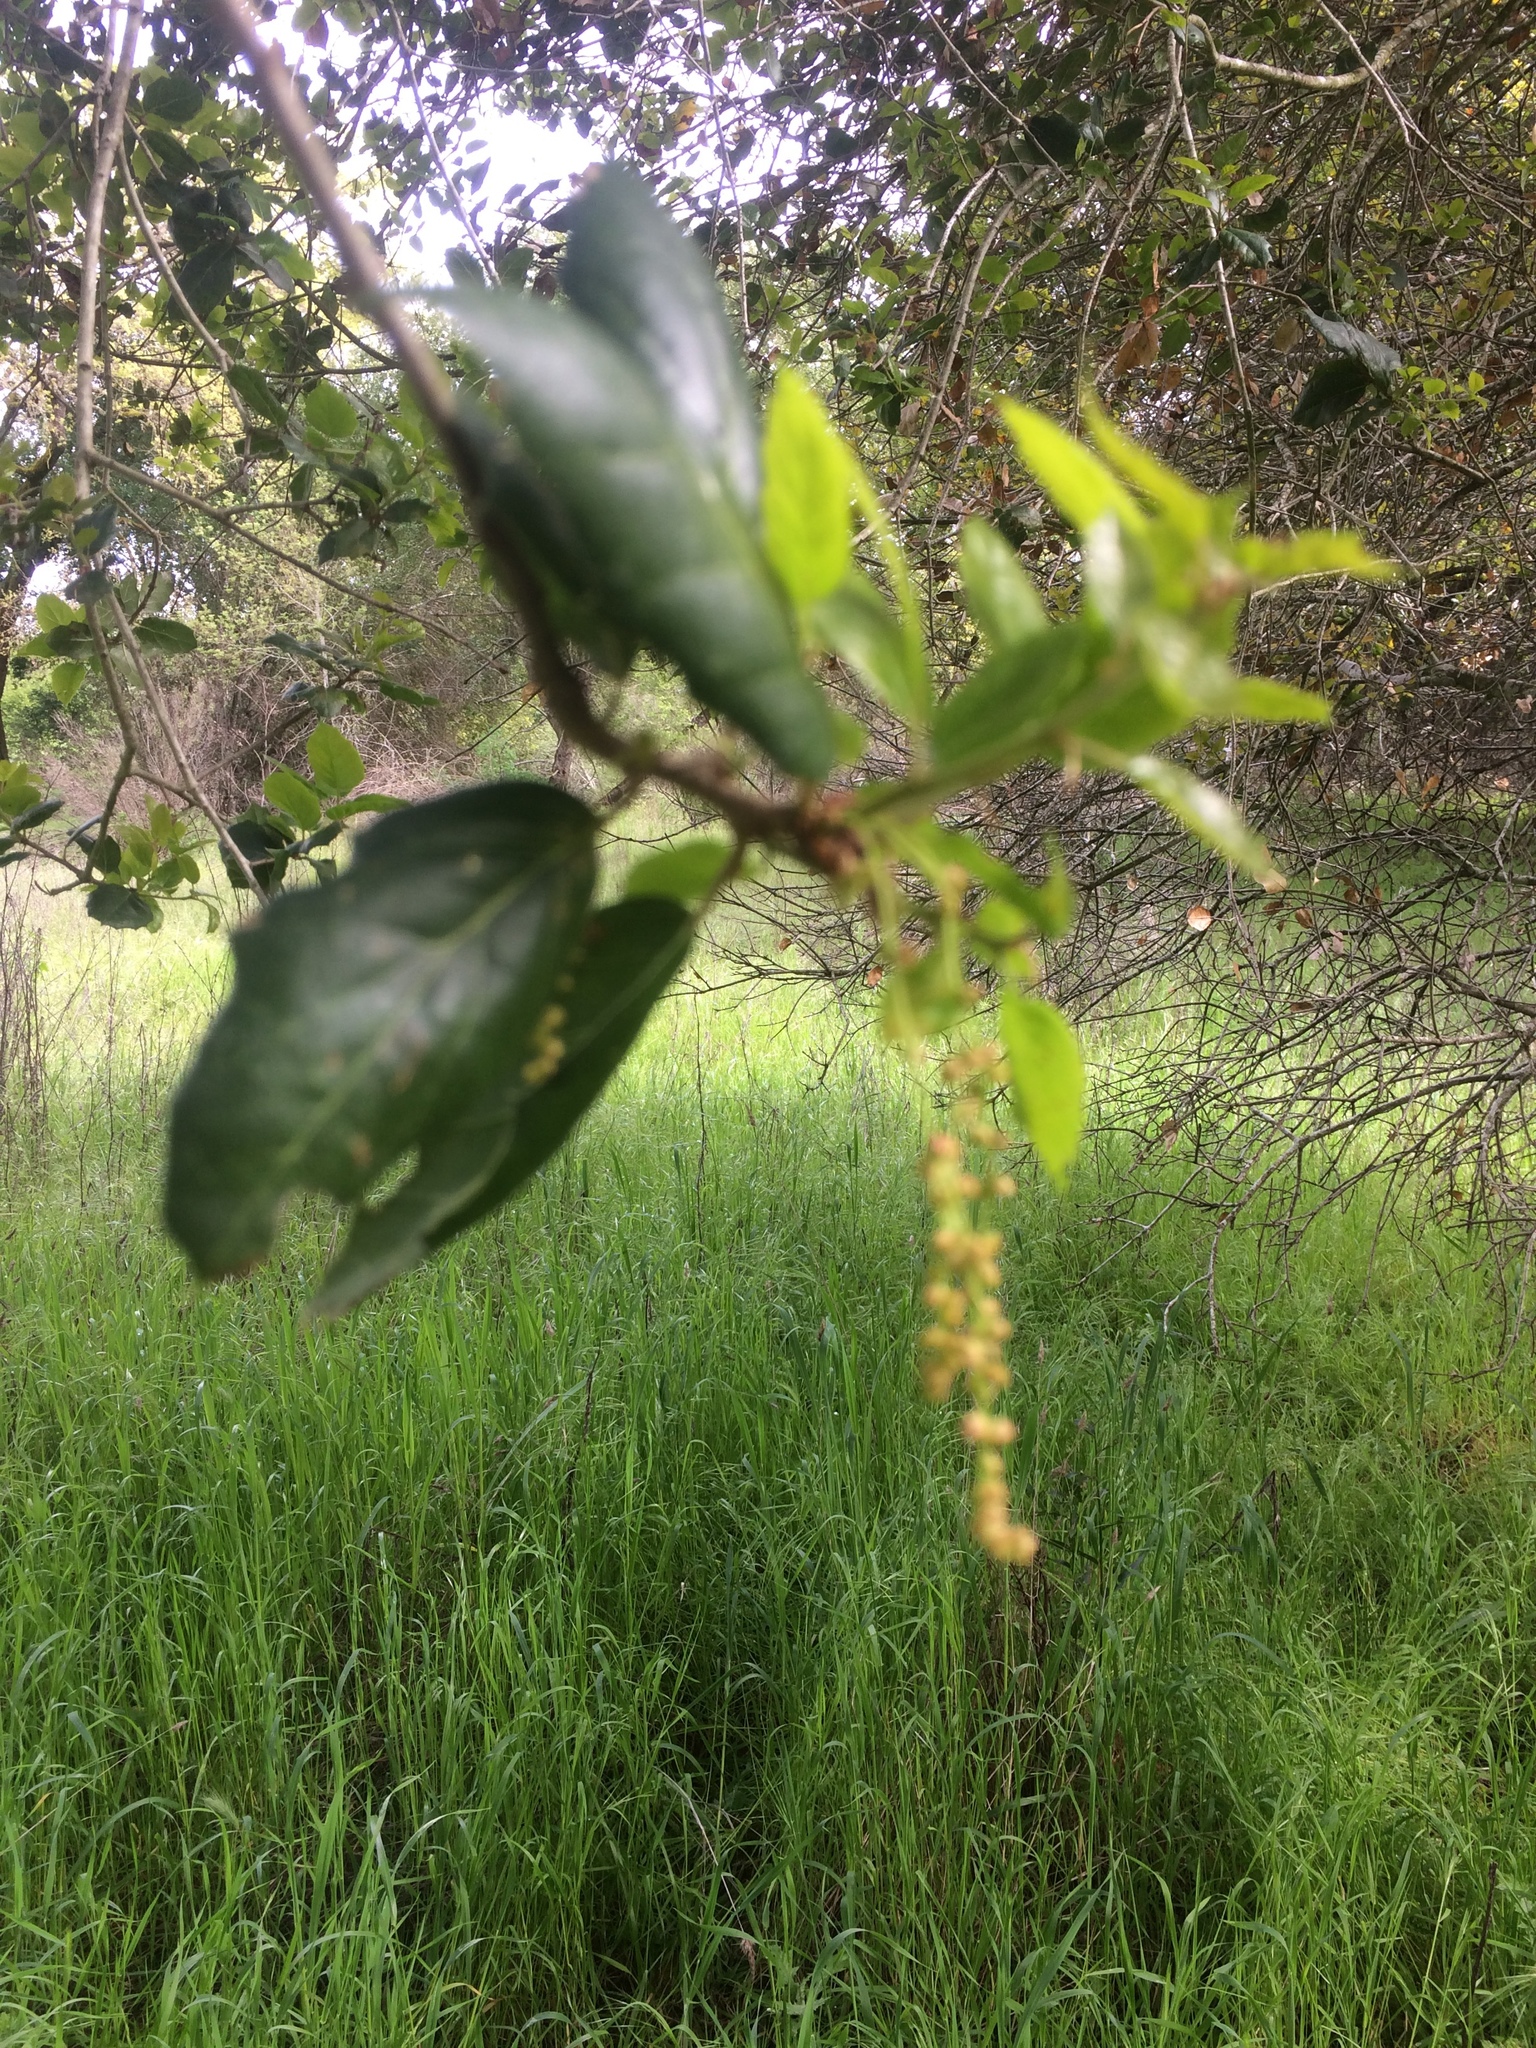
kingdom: Plantae
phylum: Tracheophyta
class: Magnoliopsida
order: Fagales
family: Fagaceae
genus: Quercus
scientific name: Quercus agrifolia
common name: California live oak
